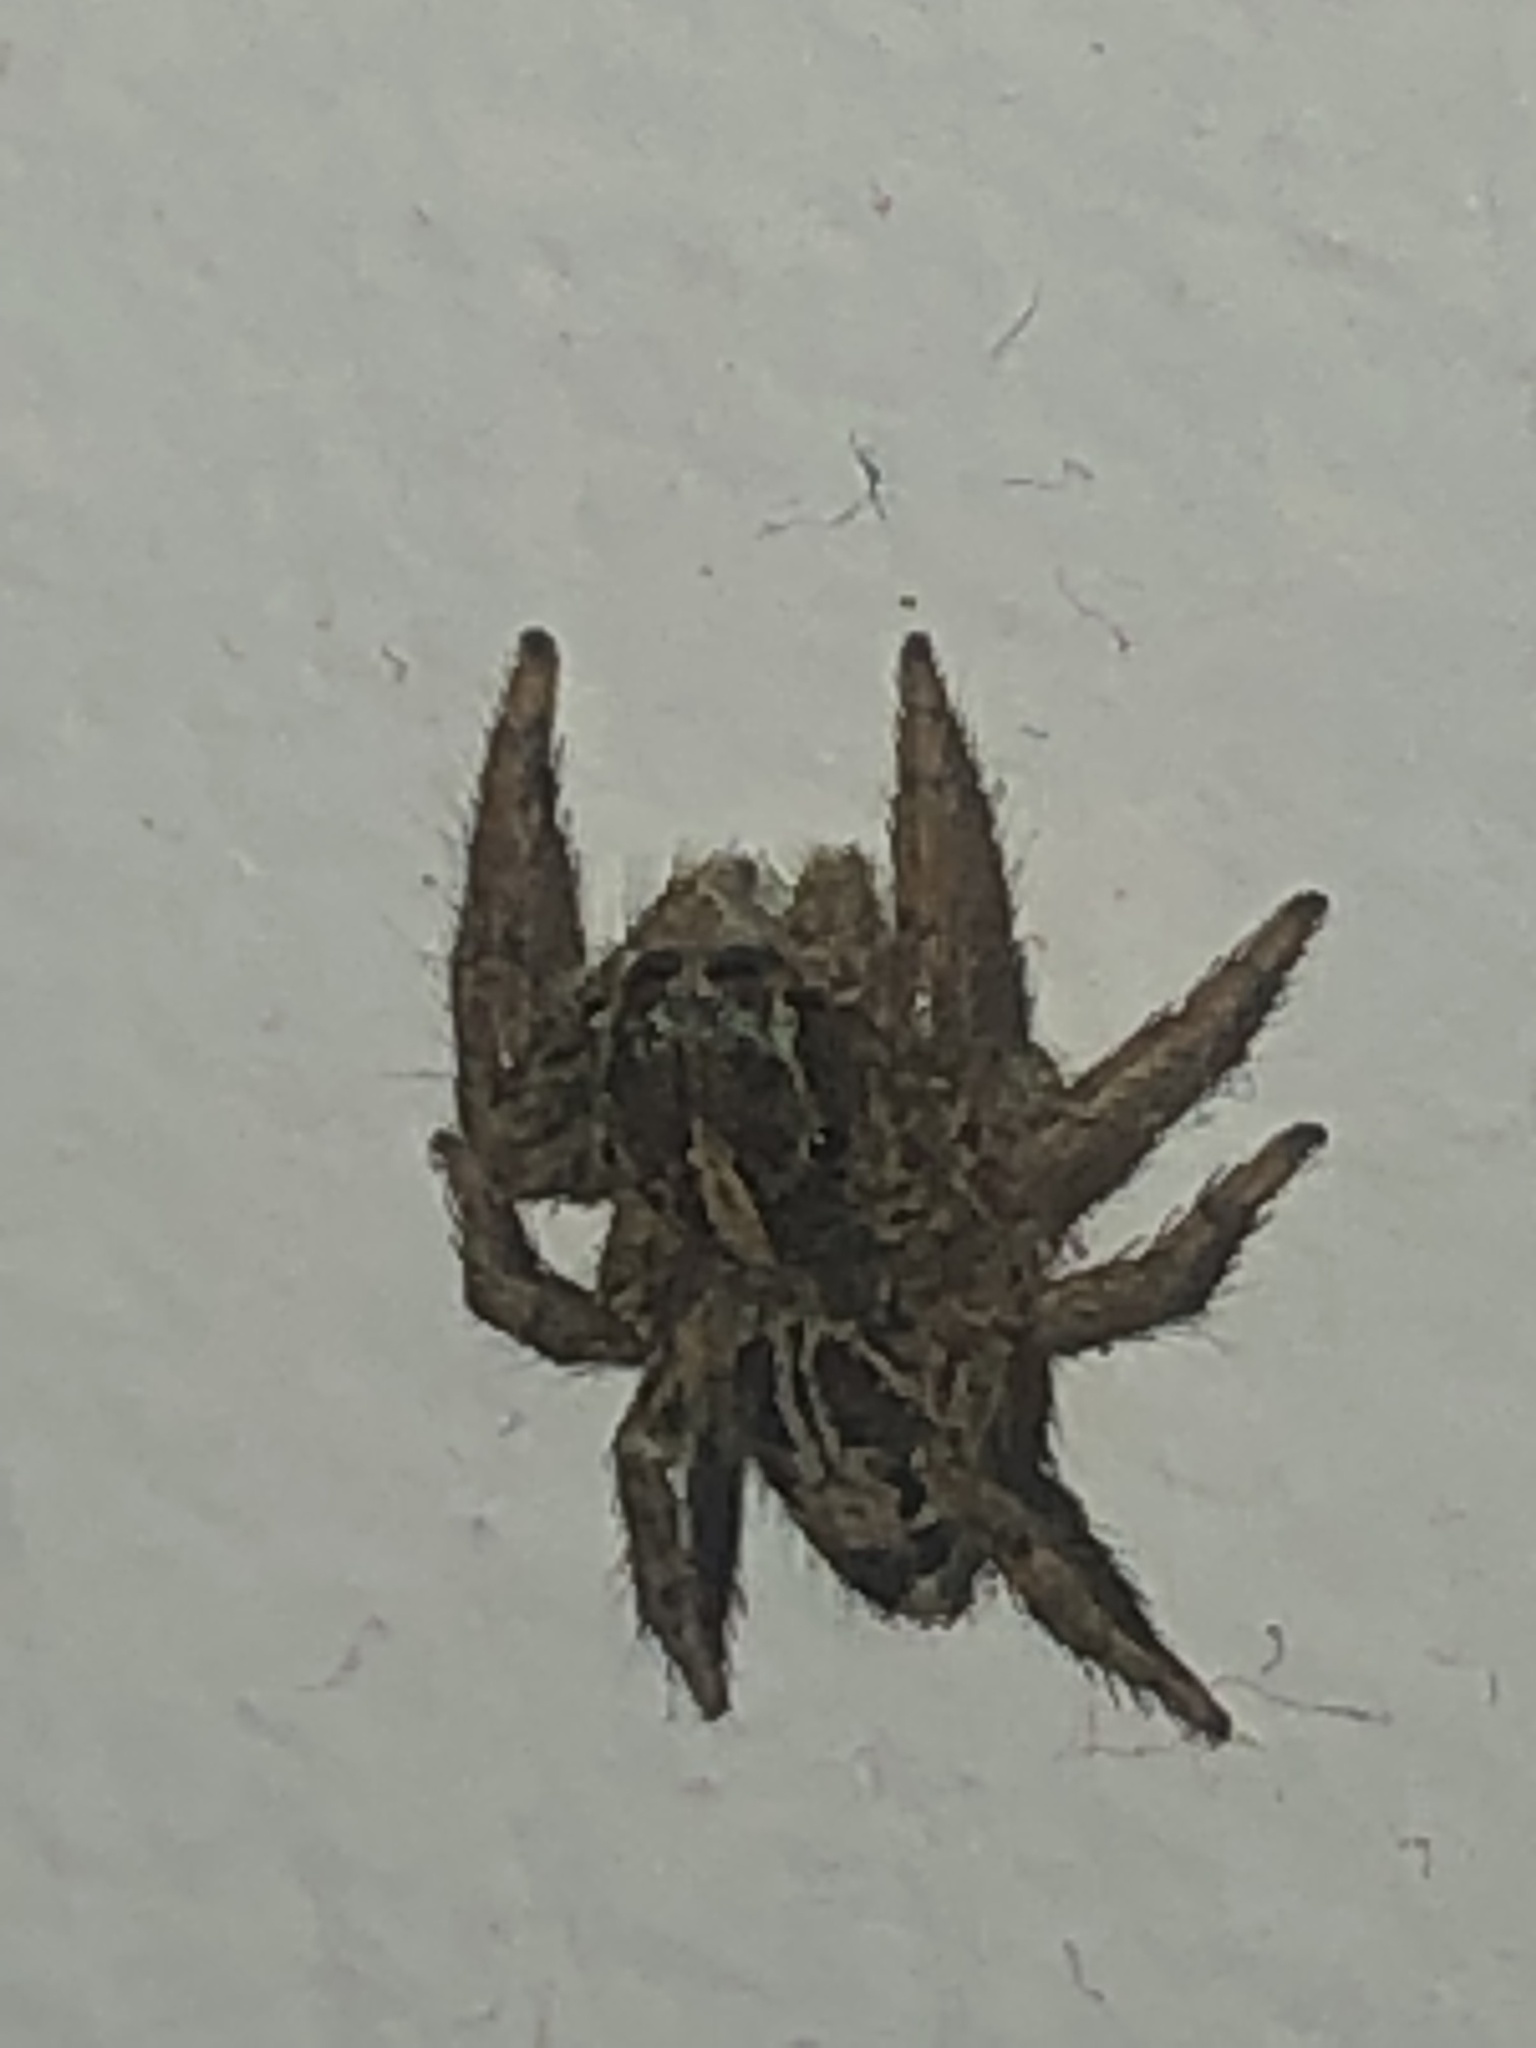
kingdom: Animalia
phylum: Arthropoda
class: Arachnida
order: Araneae
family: Salticidae
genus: Plexippus
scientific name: Plexippus paykulli
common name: Pantropical jumper
